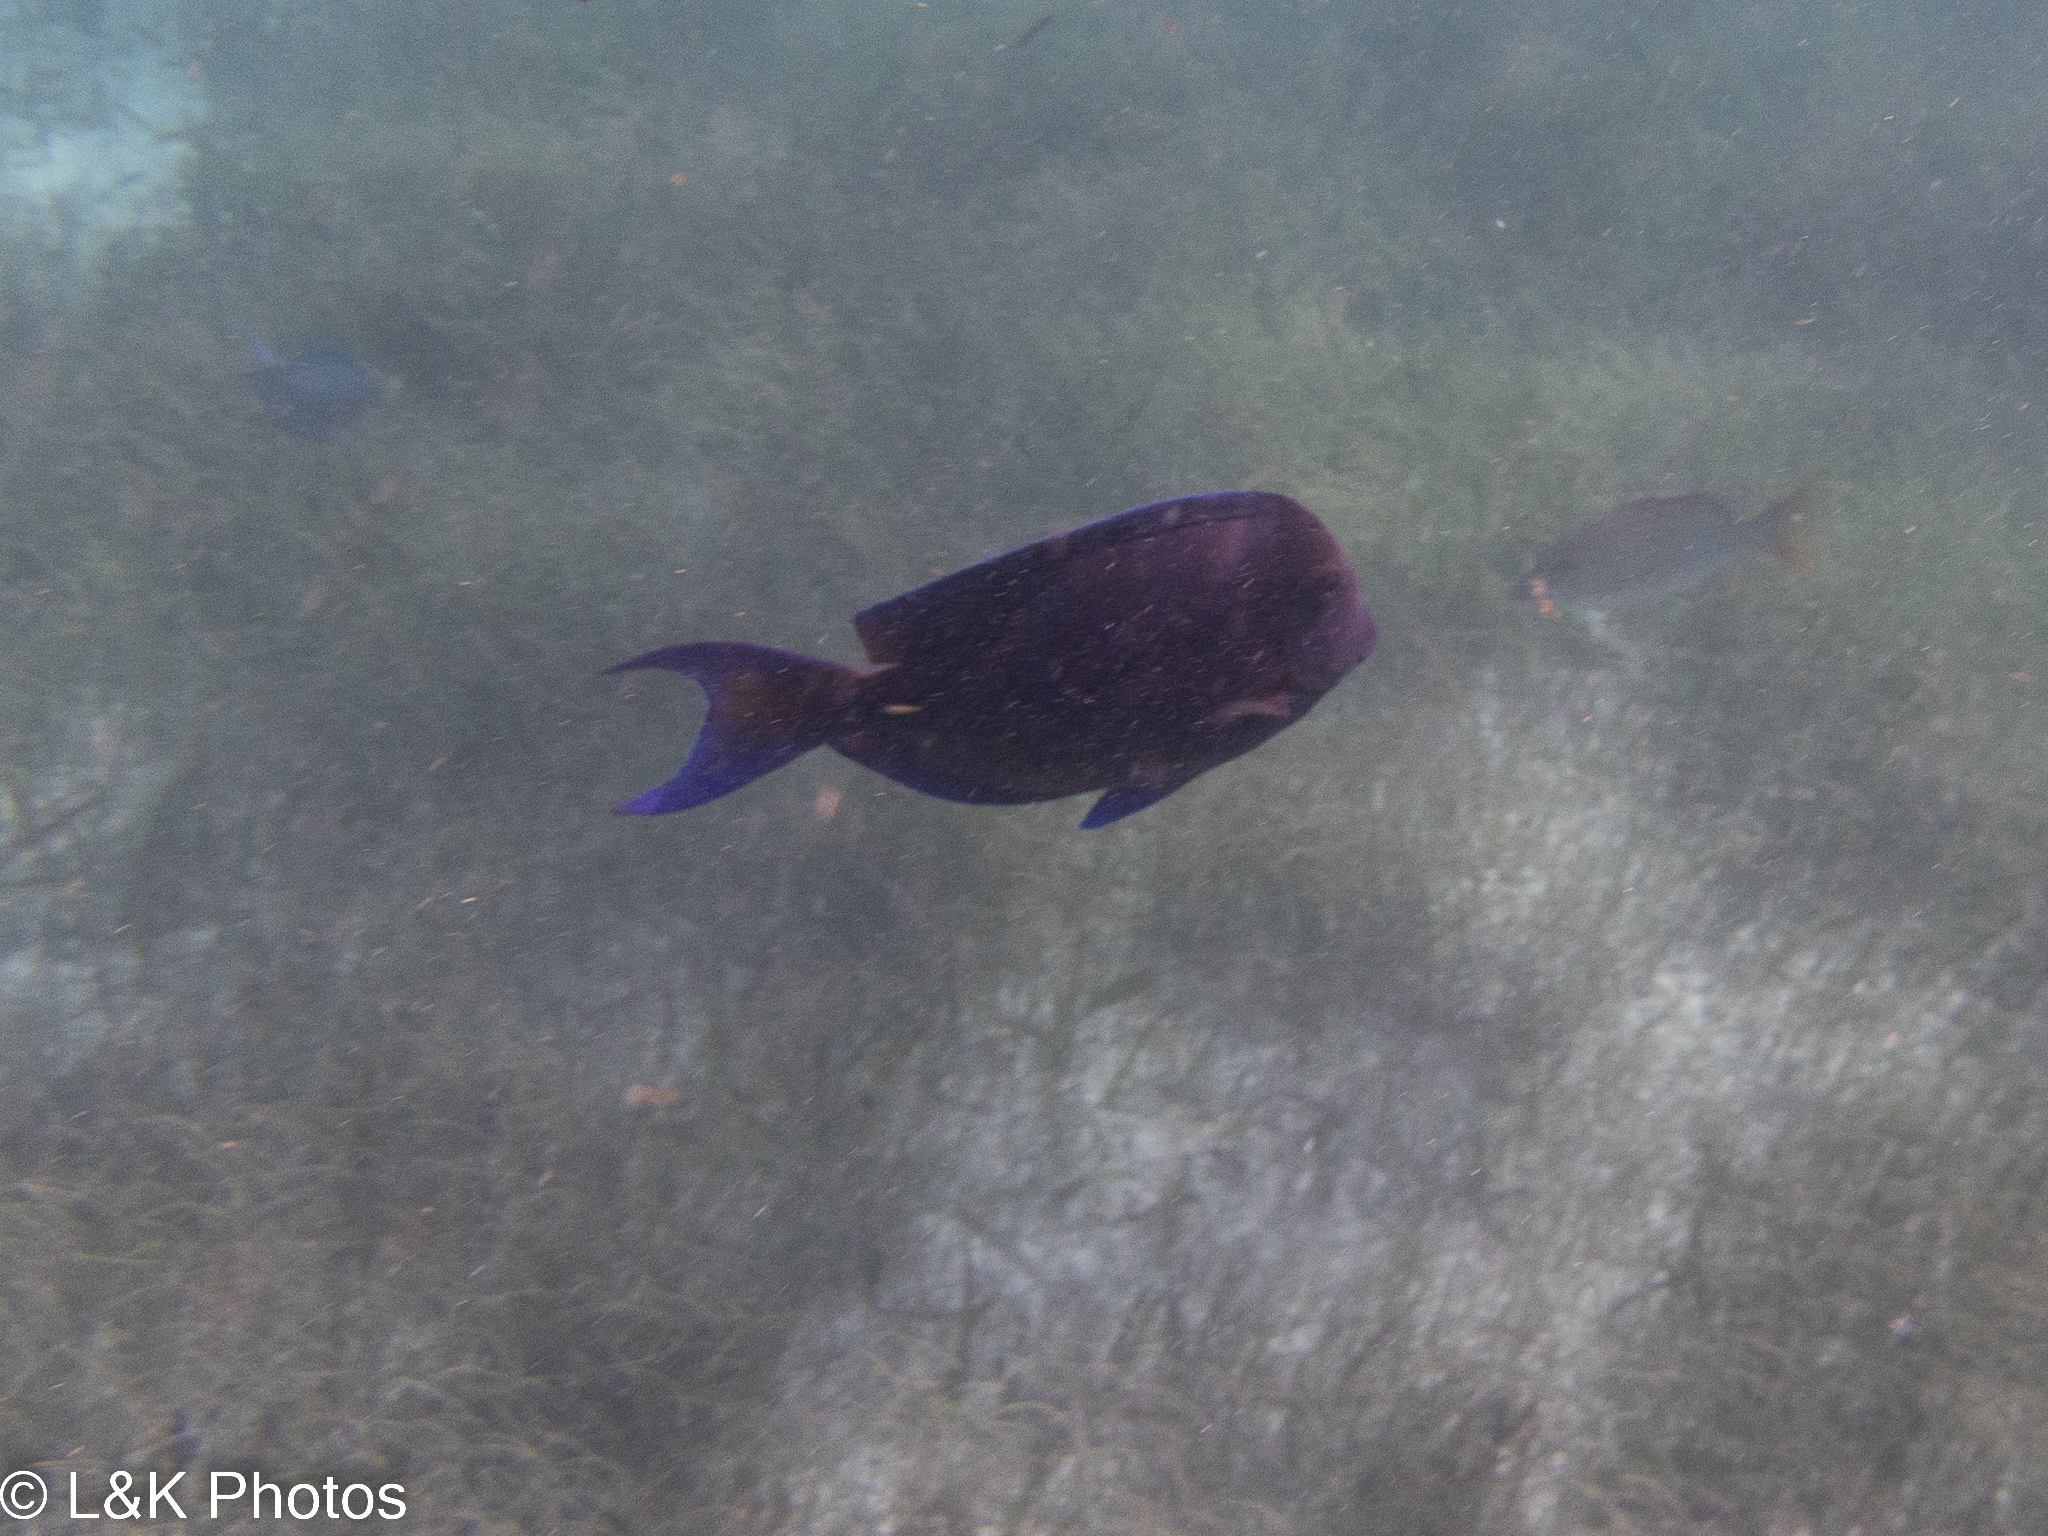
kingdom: Animalia
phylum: Chordata
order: Perciformes
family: Acanthuridae
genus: Acanthurus
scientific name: Acanthurus coeruleus
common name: Blue tang
